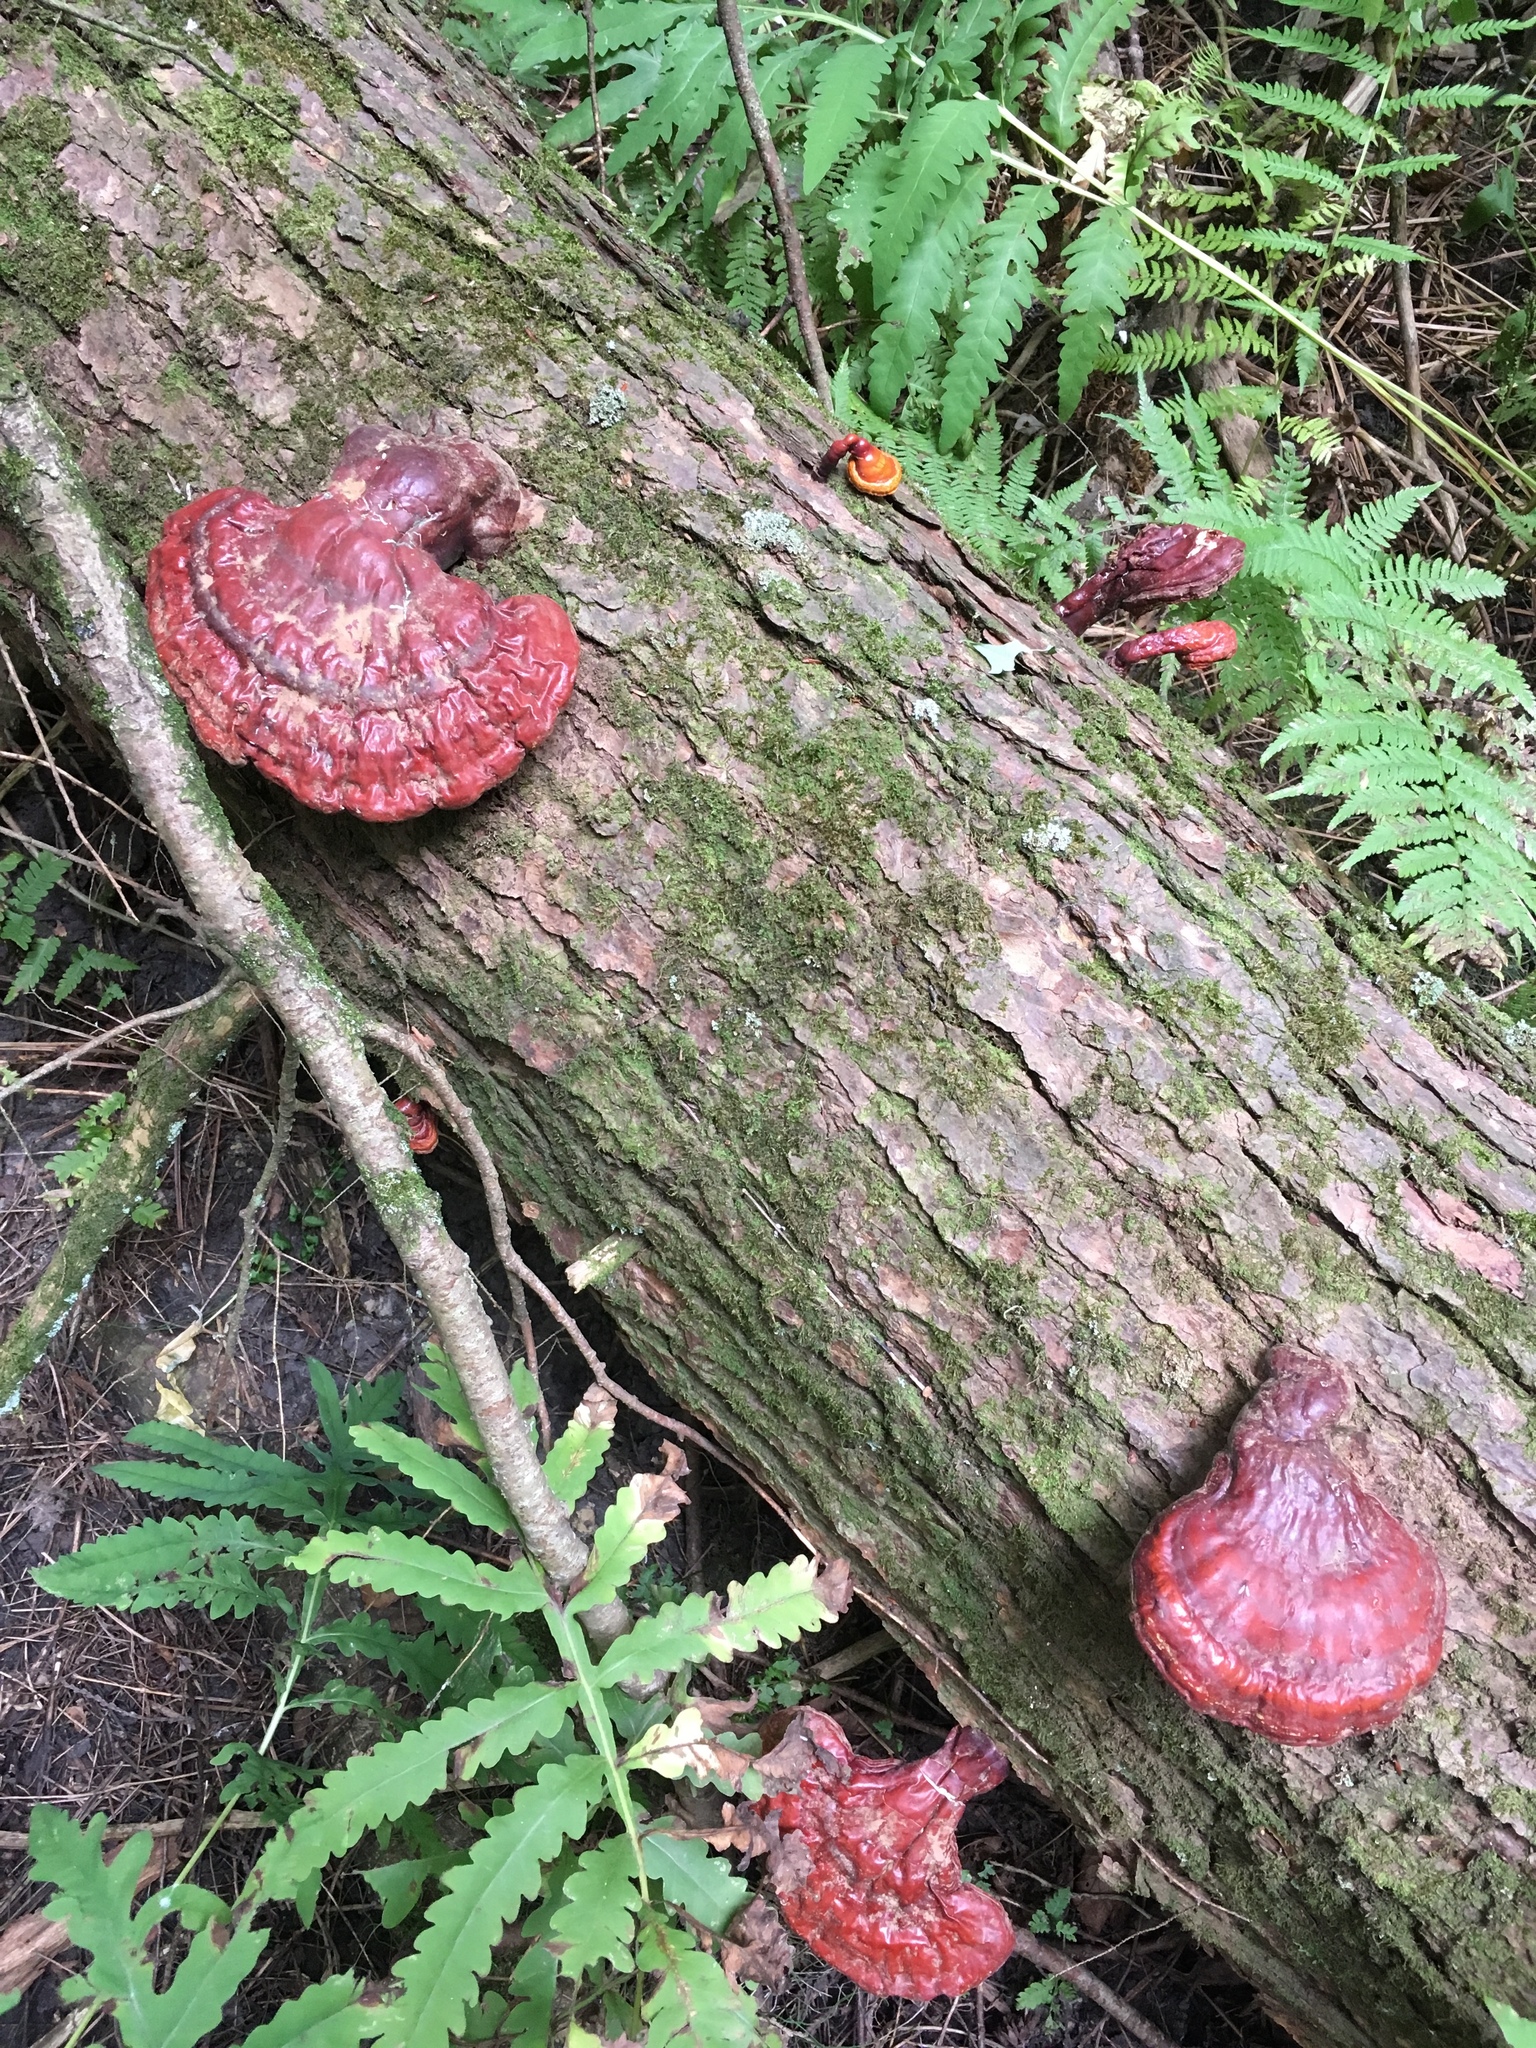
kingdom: Fungi
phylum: Basidiomycota
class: Agaricomycetes
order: Polyporales
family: Polyporaceae
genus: Ganoderma
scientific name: Ganoderma tsugae
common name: Hemlock varnish shelf
